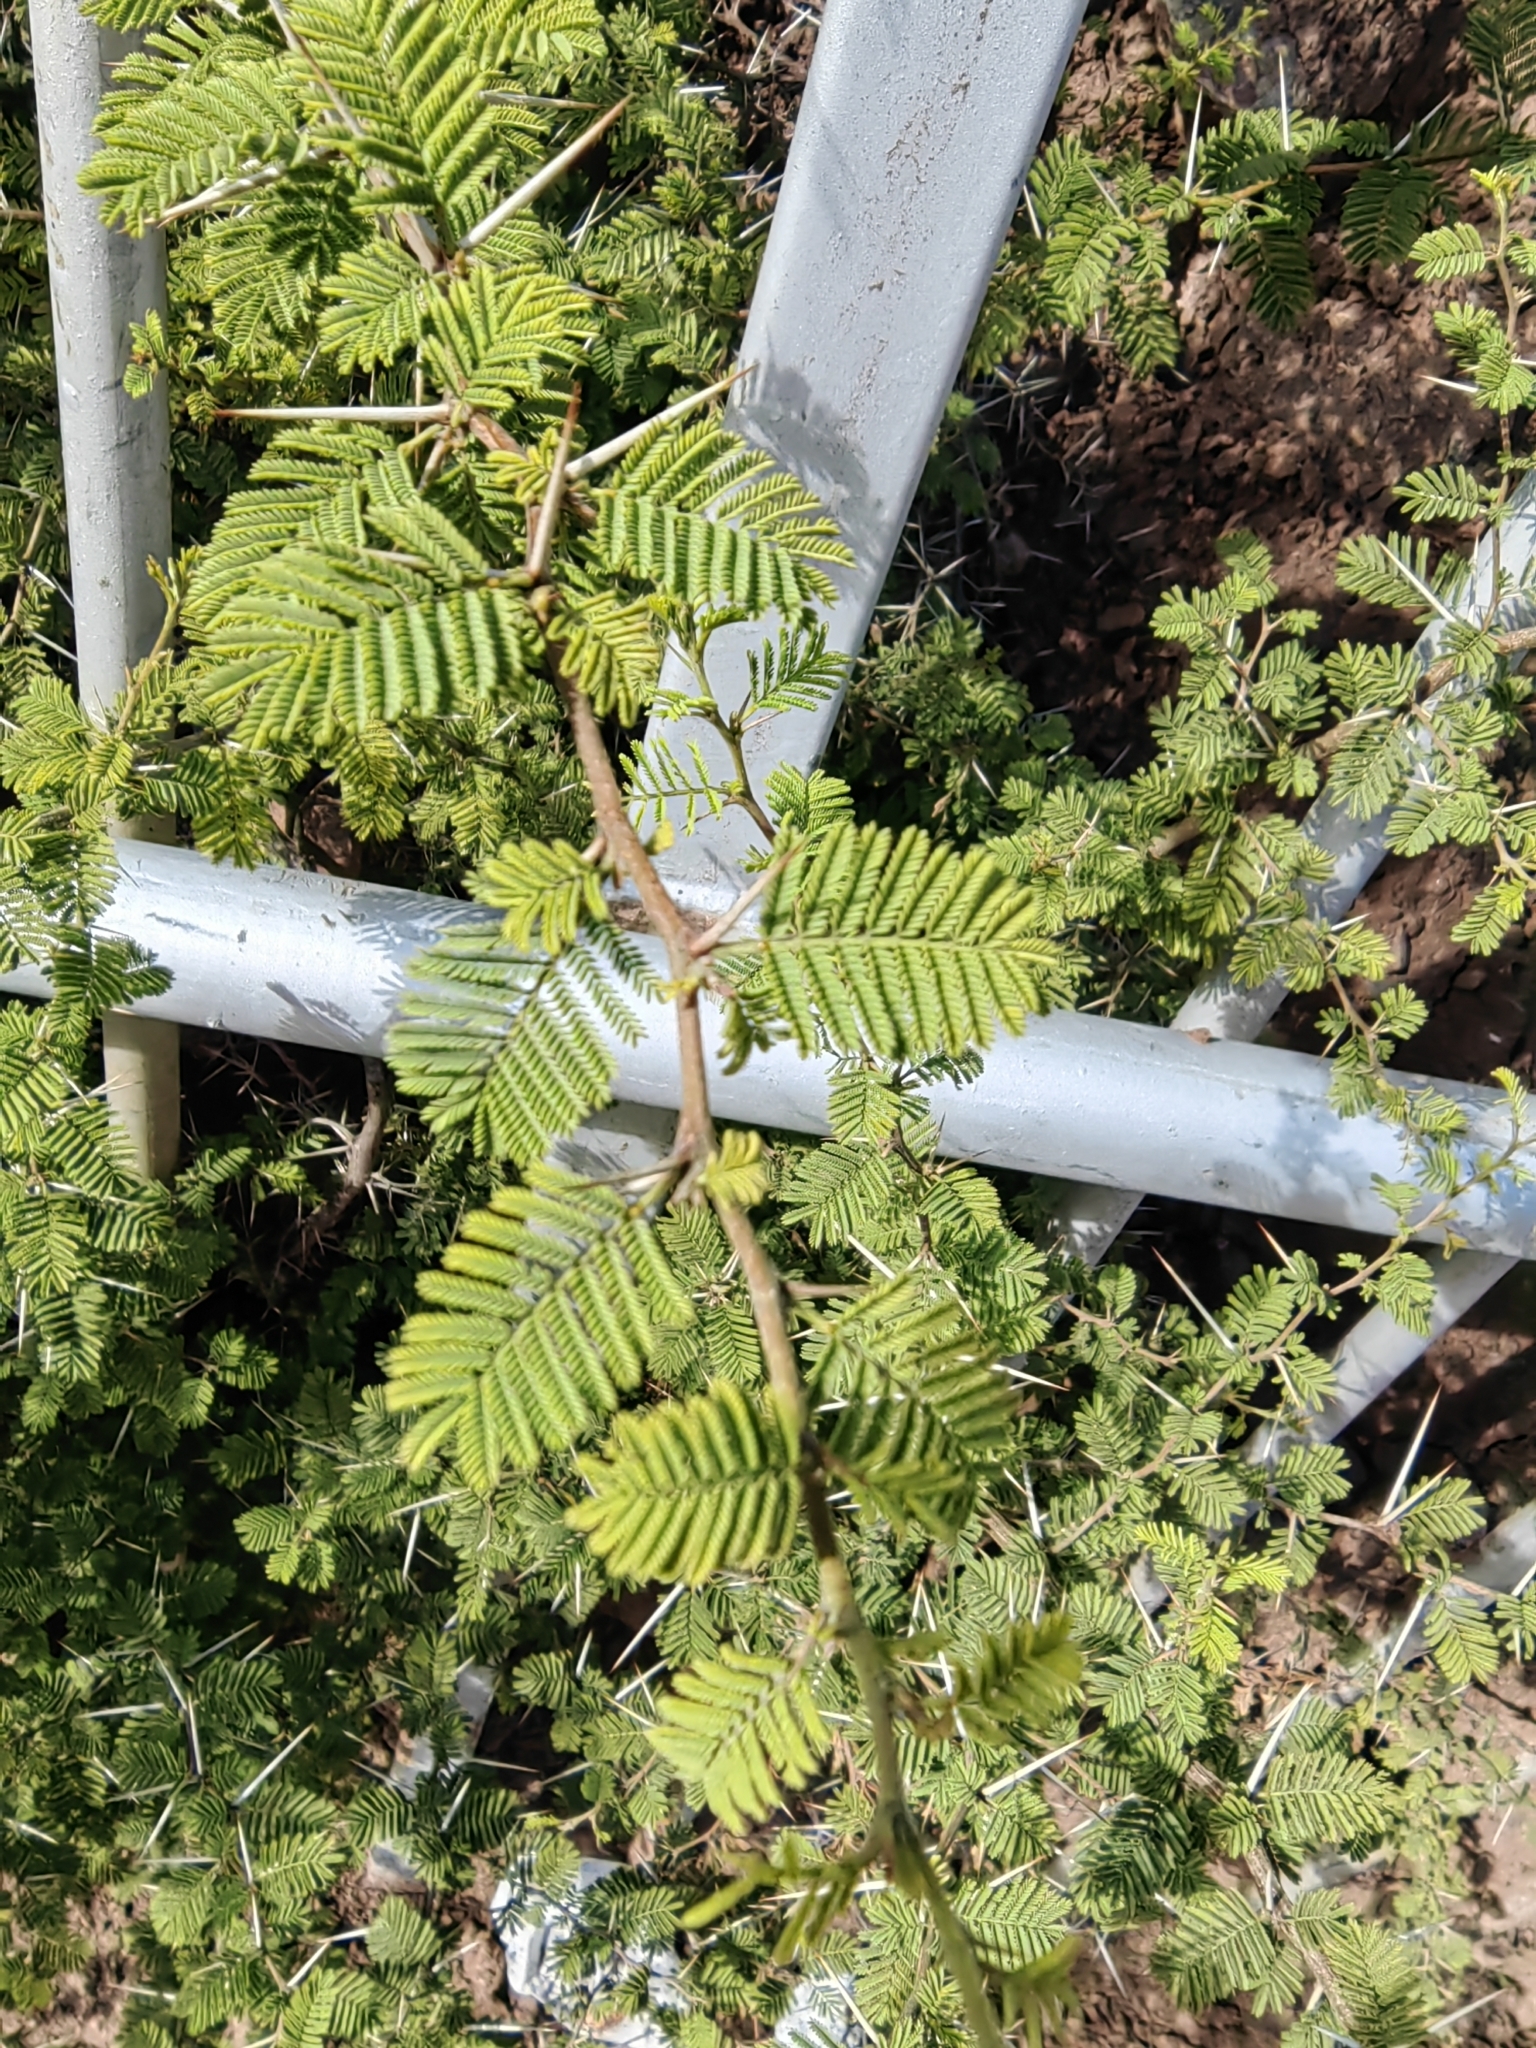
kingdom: Plantae
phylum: Tracheophyta
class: Magnoliopsida
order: Fabales
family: Fabaceae
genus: Vachellia
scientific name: Vachellia caven
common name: Roman cassie
